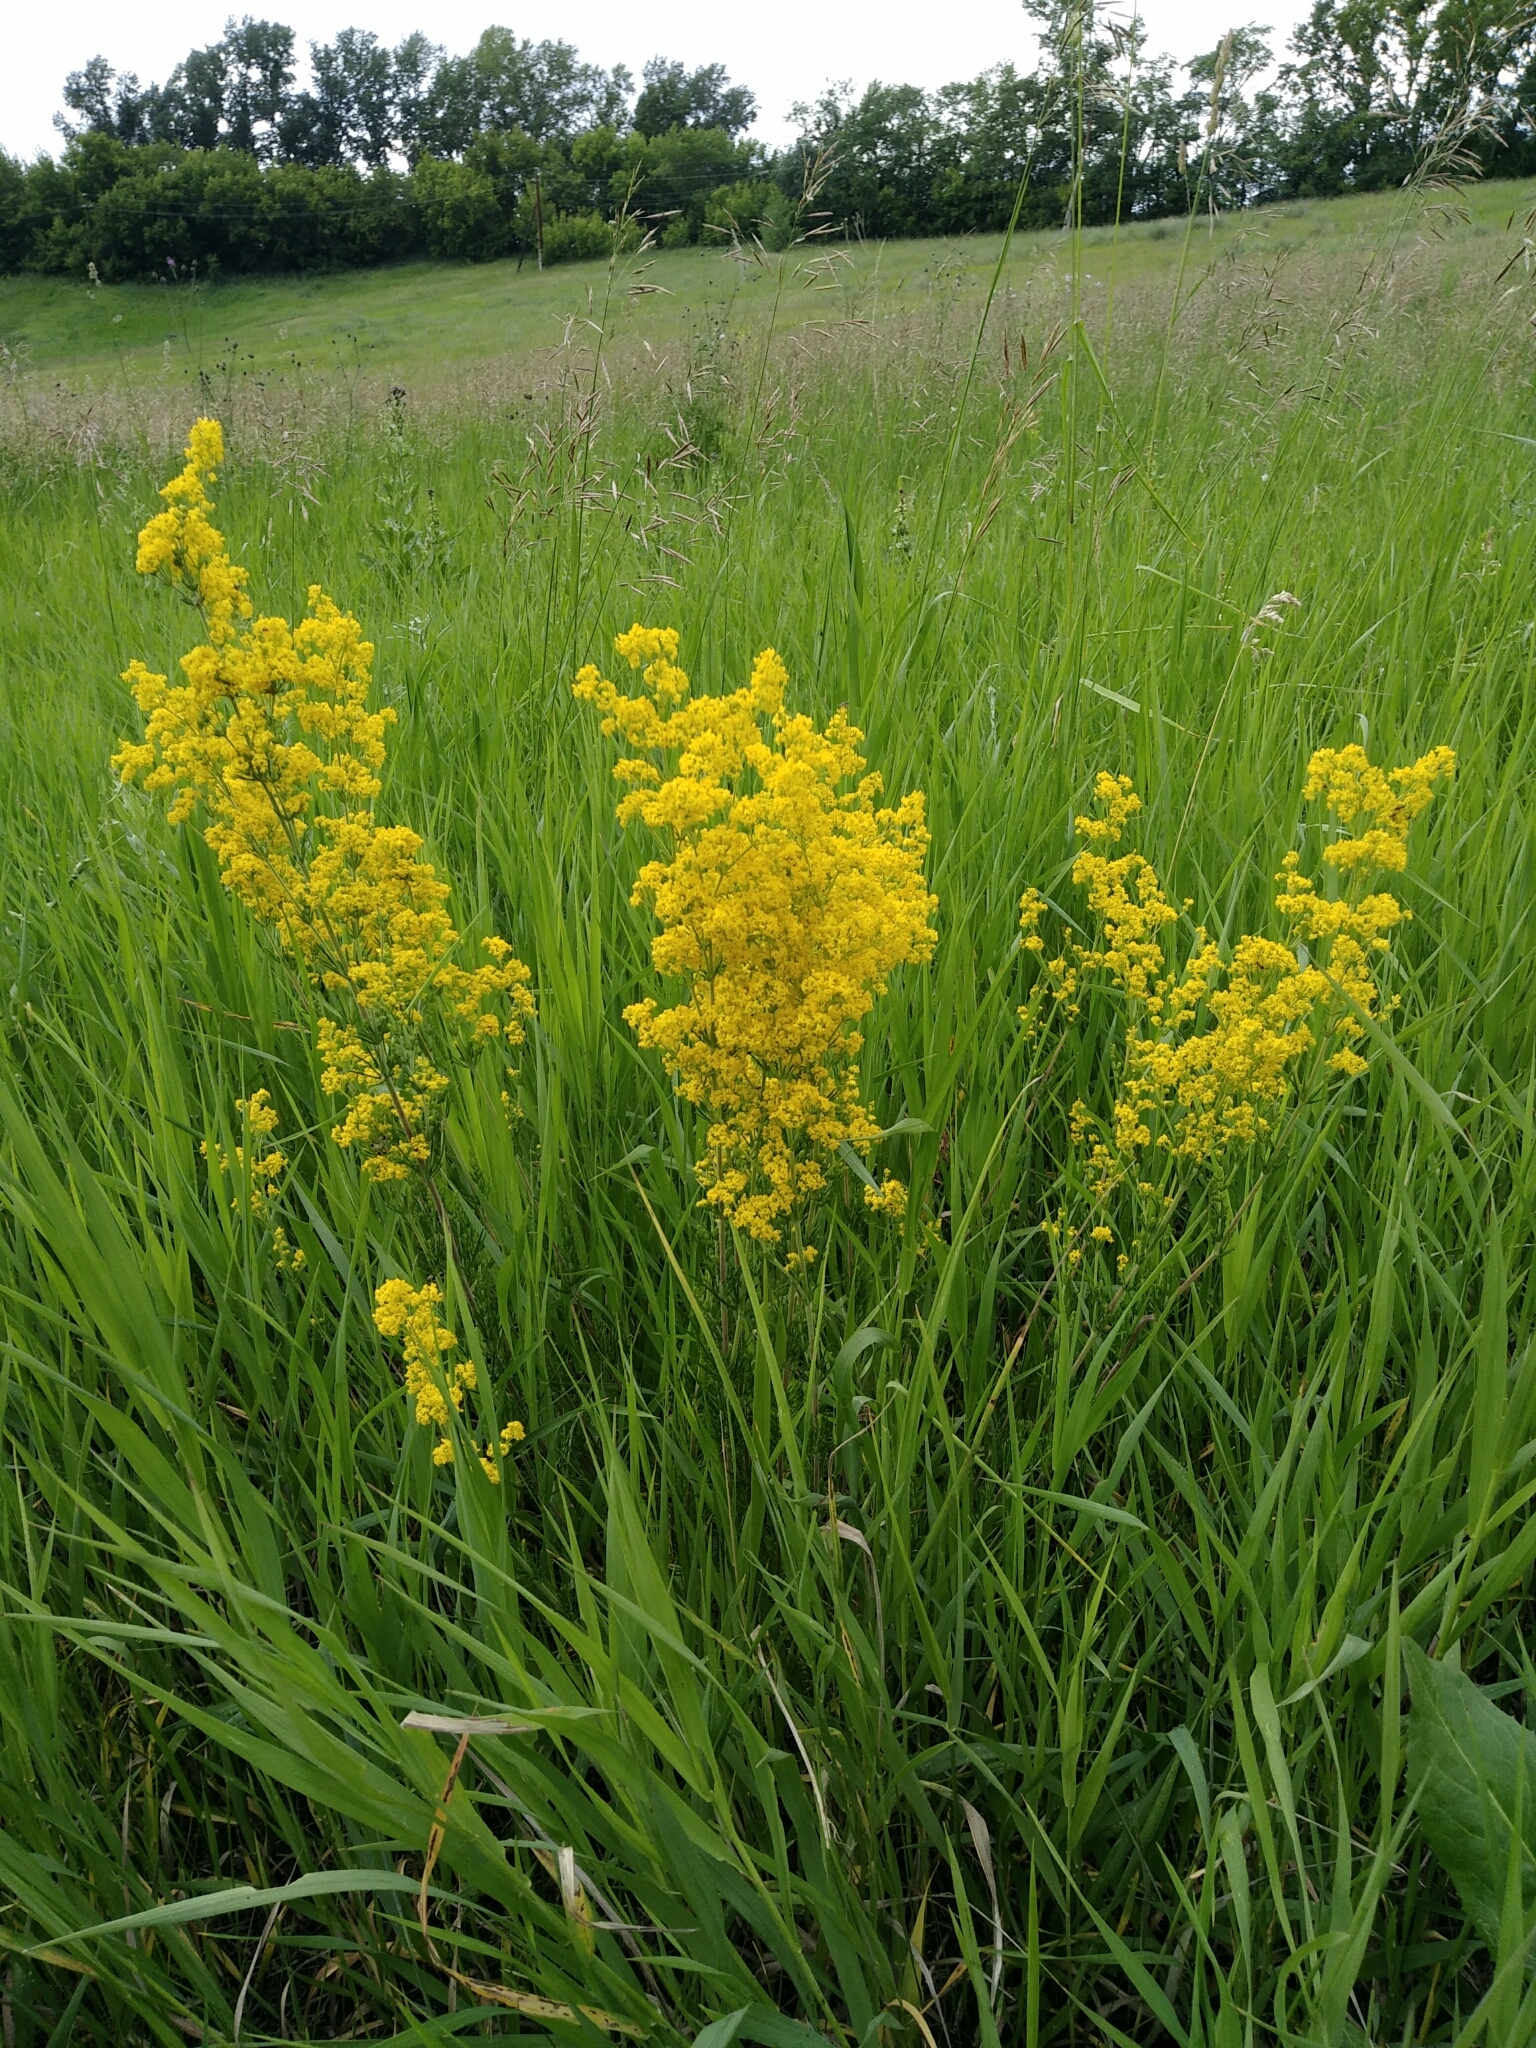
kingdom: Plantae
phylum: Tracheophyta
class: Magnoliopsida
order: Gentianales
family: Rubiaceae
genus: Galium
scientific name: Galium verum
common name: Lady's bedstraw
